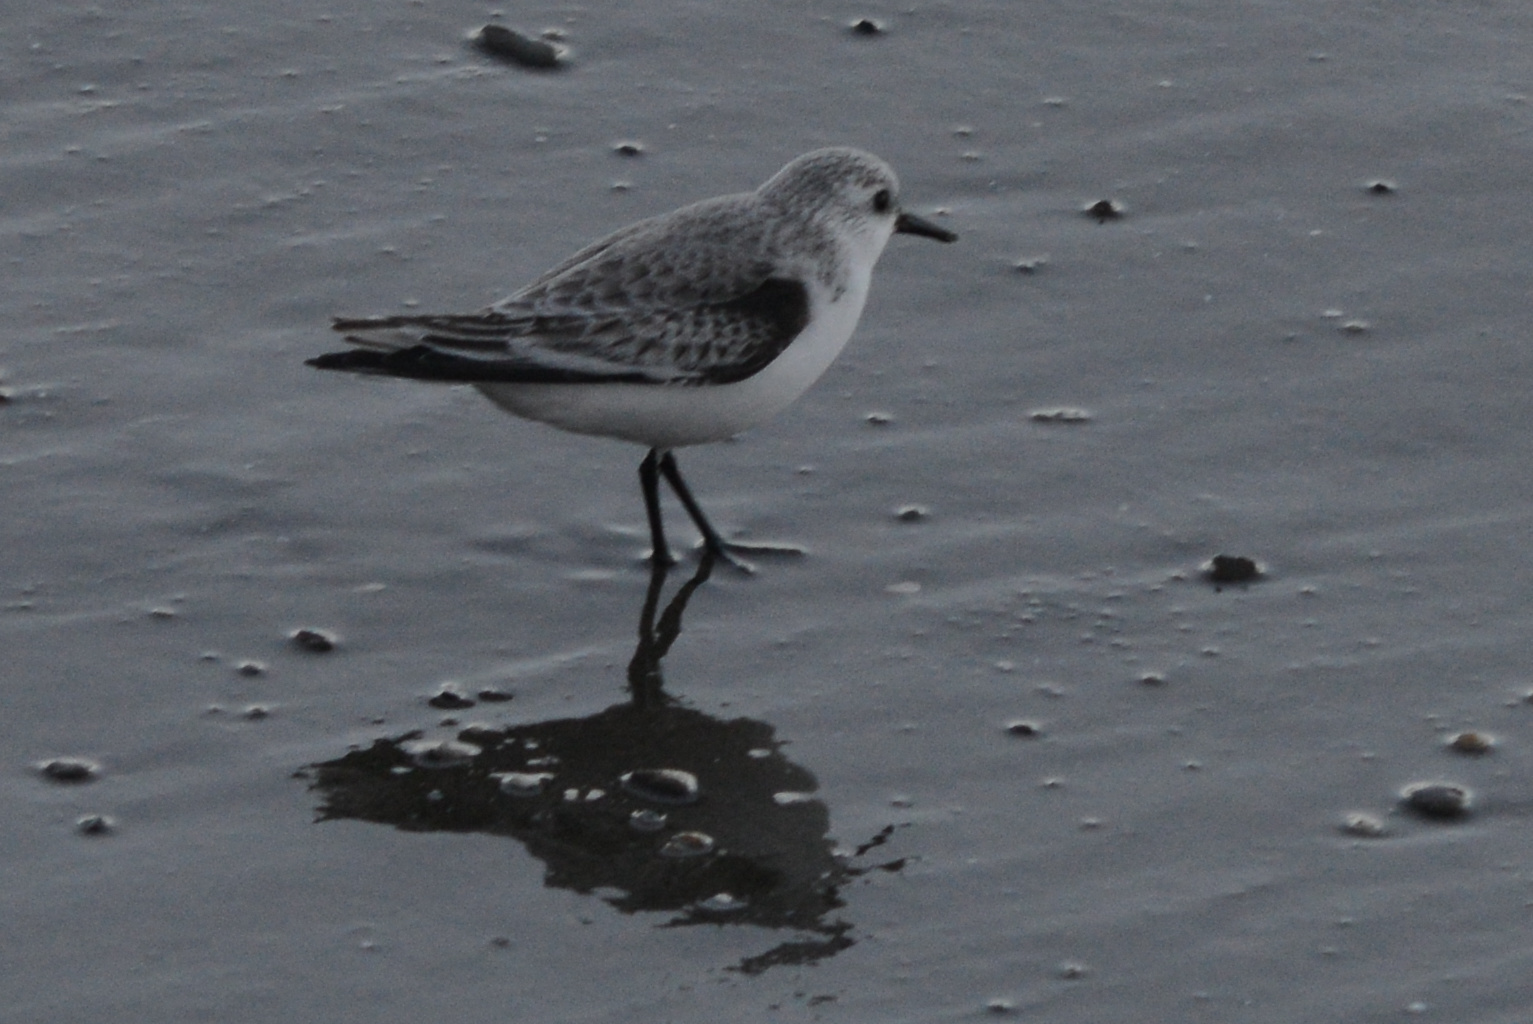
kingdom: Animalia
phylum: Chordata
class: Aves
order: Charadriiformes
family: Scolopacidae
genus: Calidris
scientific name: Calidris alba
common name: Sanderling
